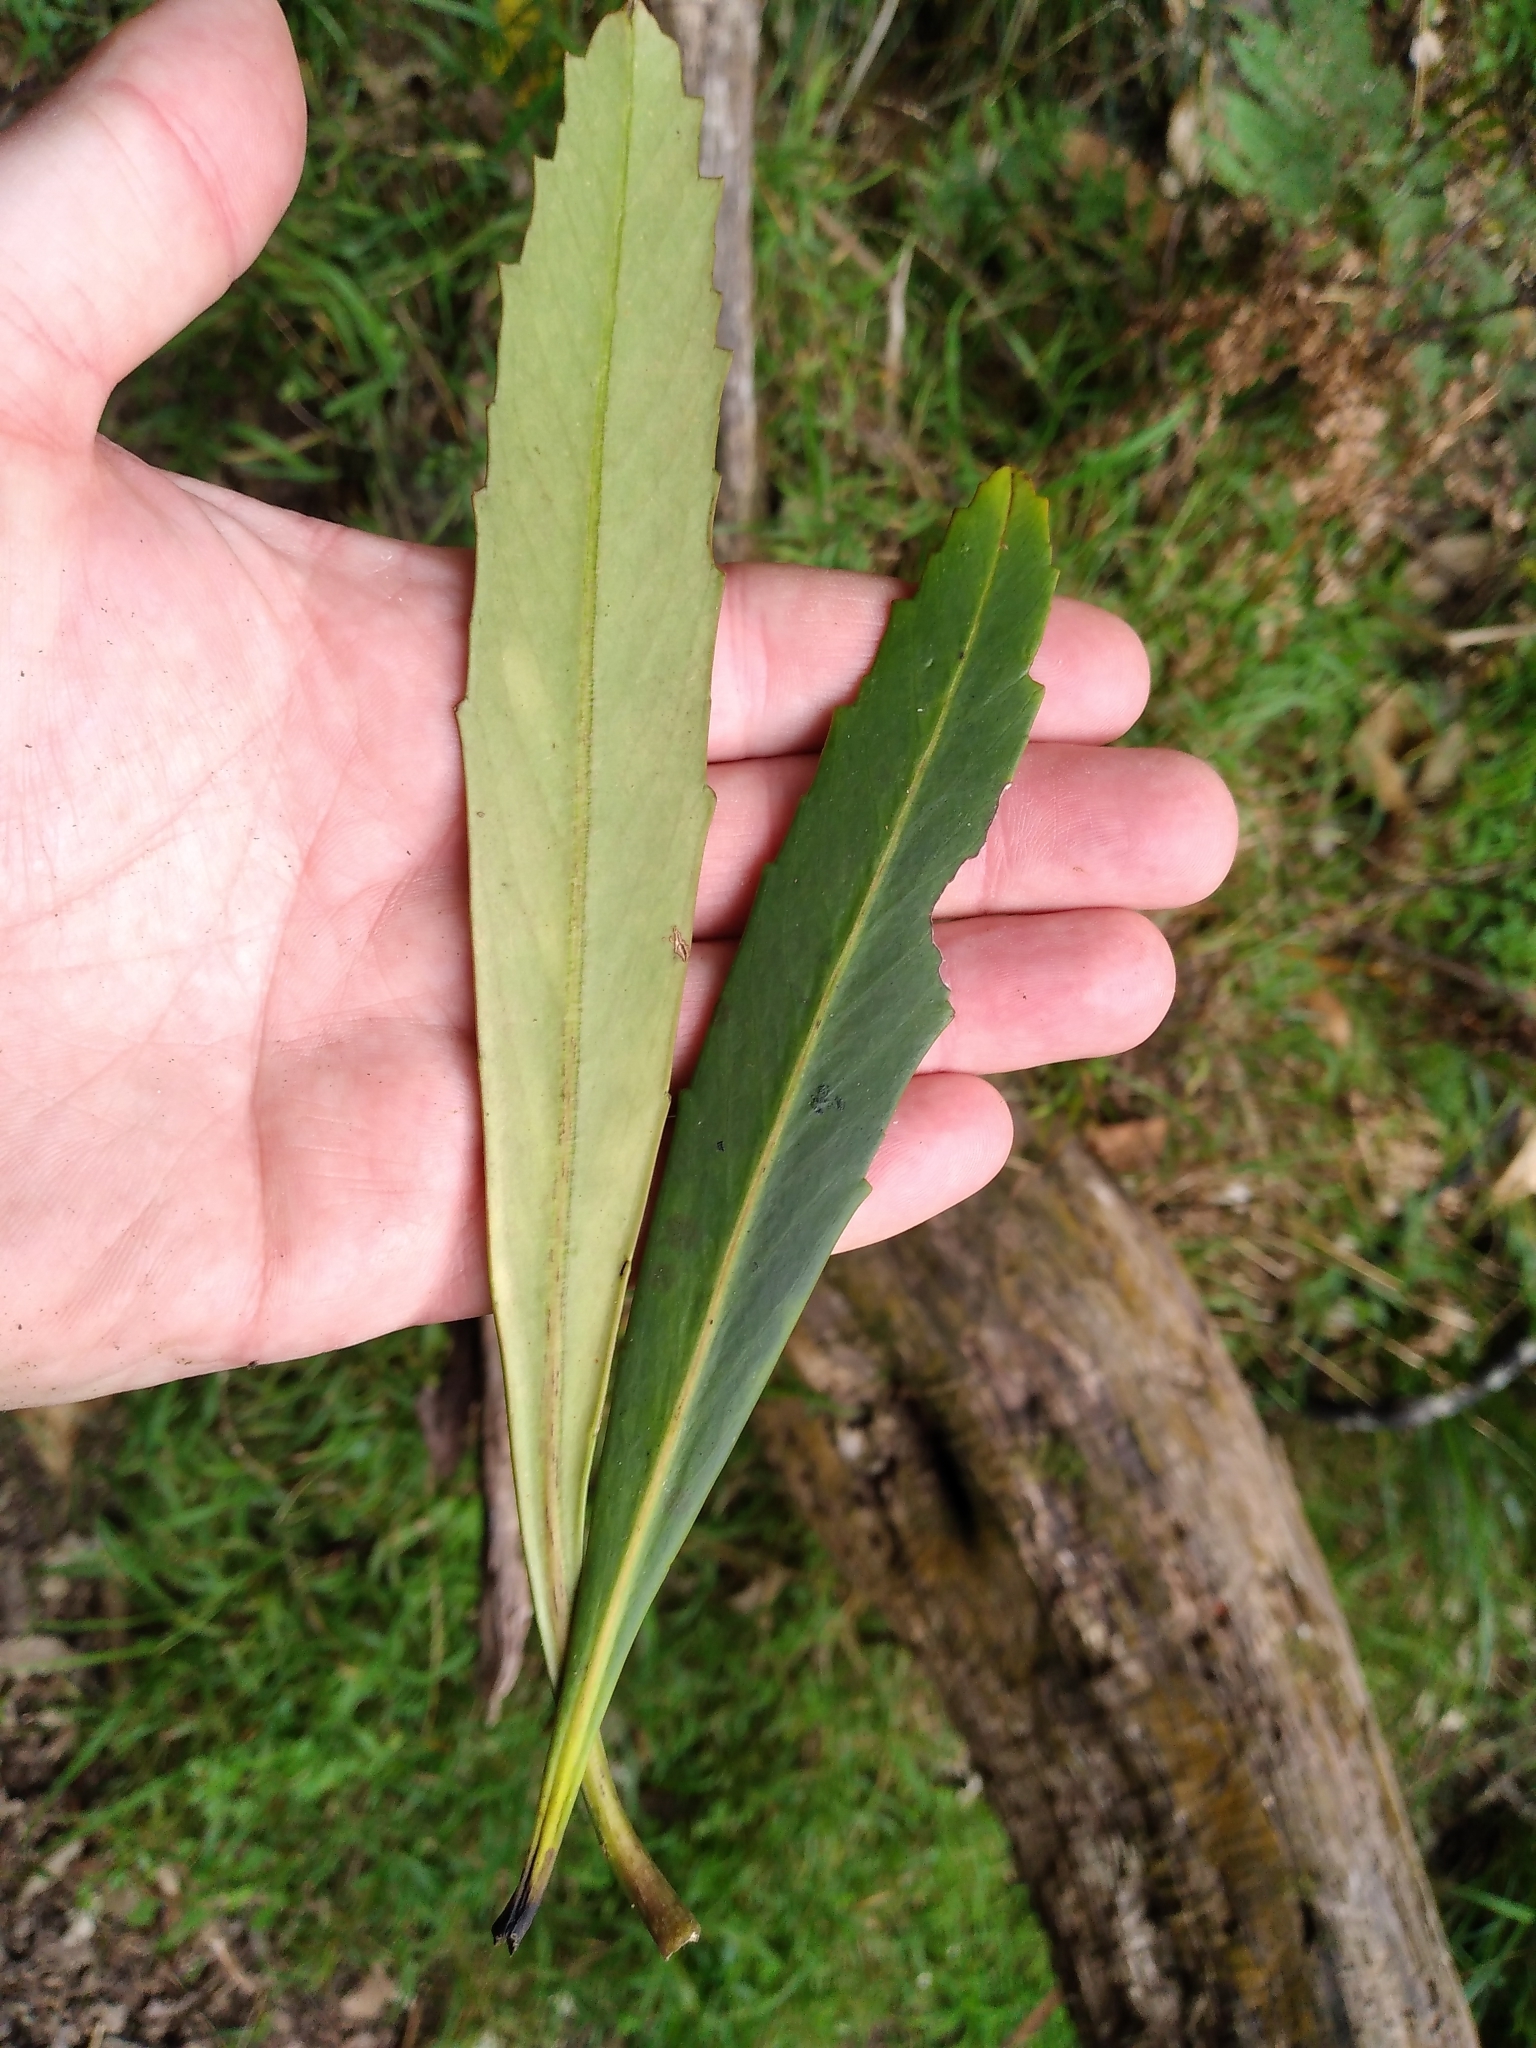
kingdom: Plantae
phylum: Tracheophyta
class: Magnoliopsida
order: Apiales
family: Araliaceae
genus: Pseudopanax
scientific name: Pseudopanax crassifolius
